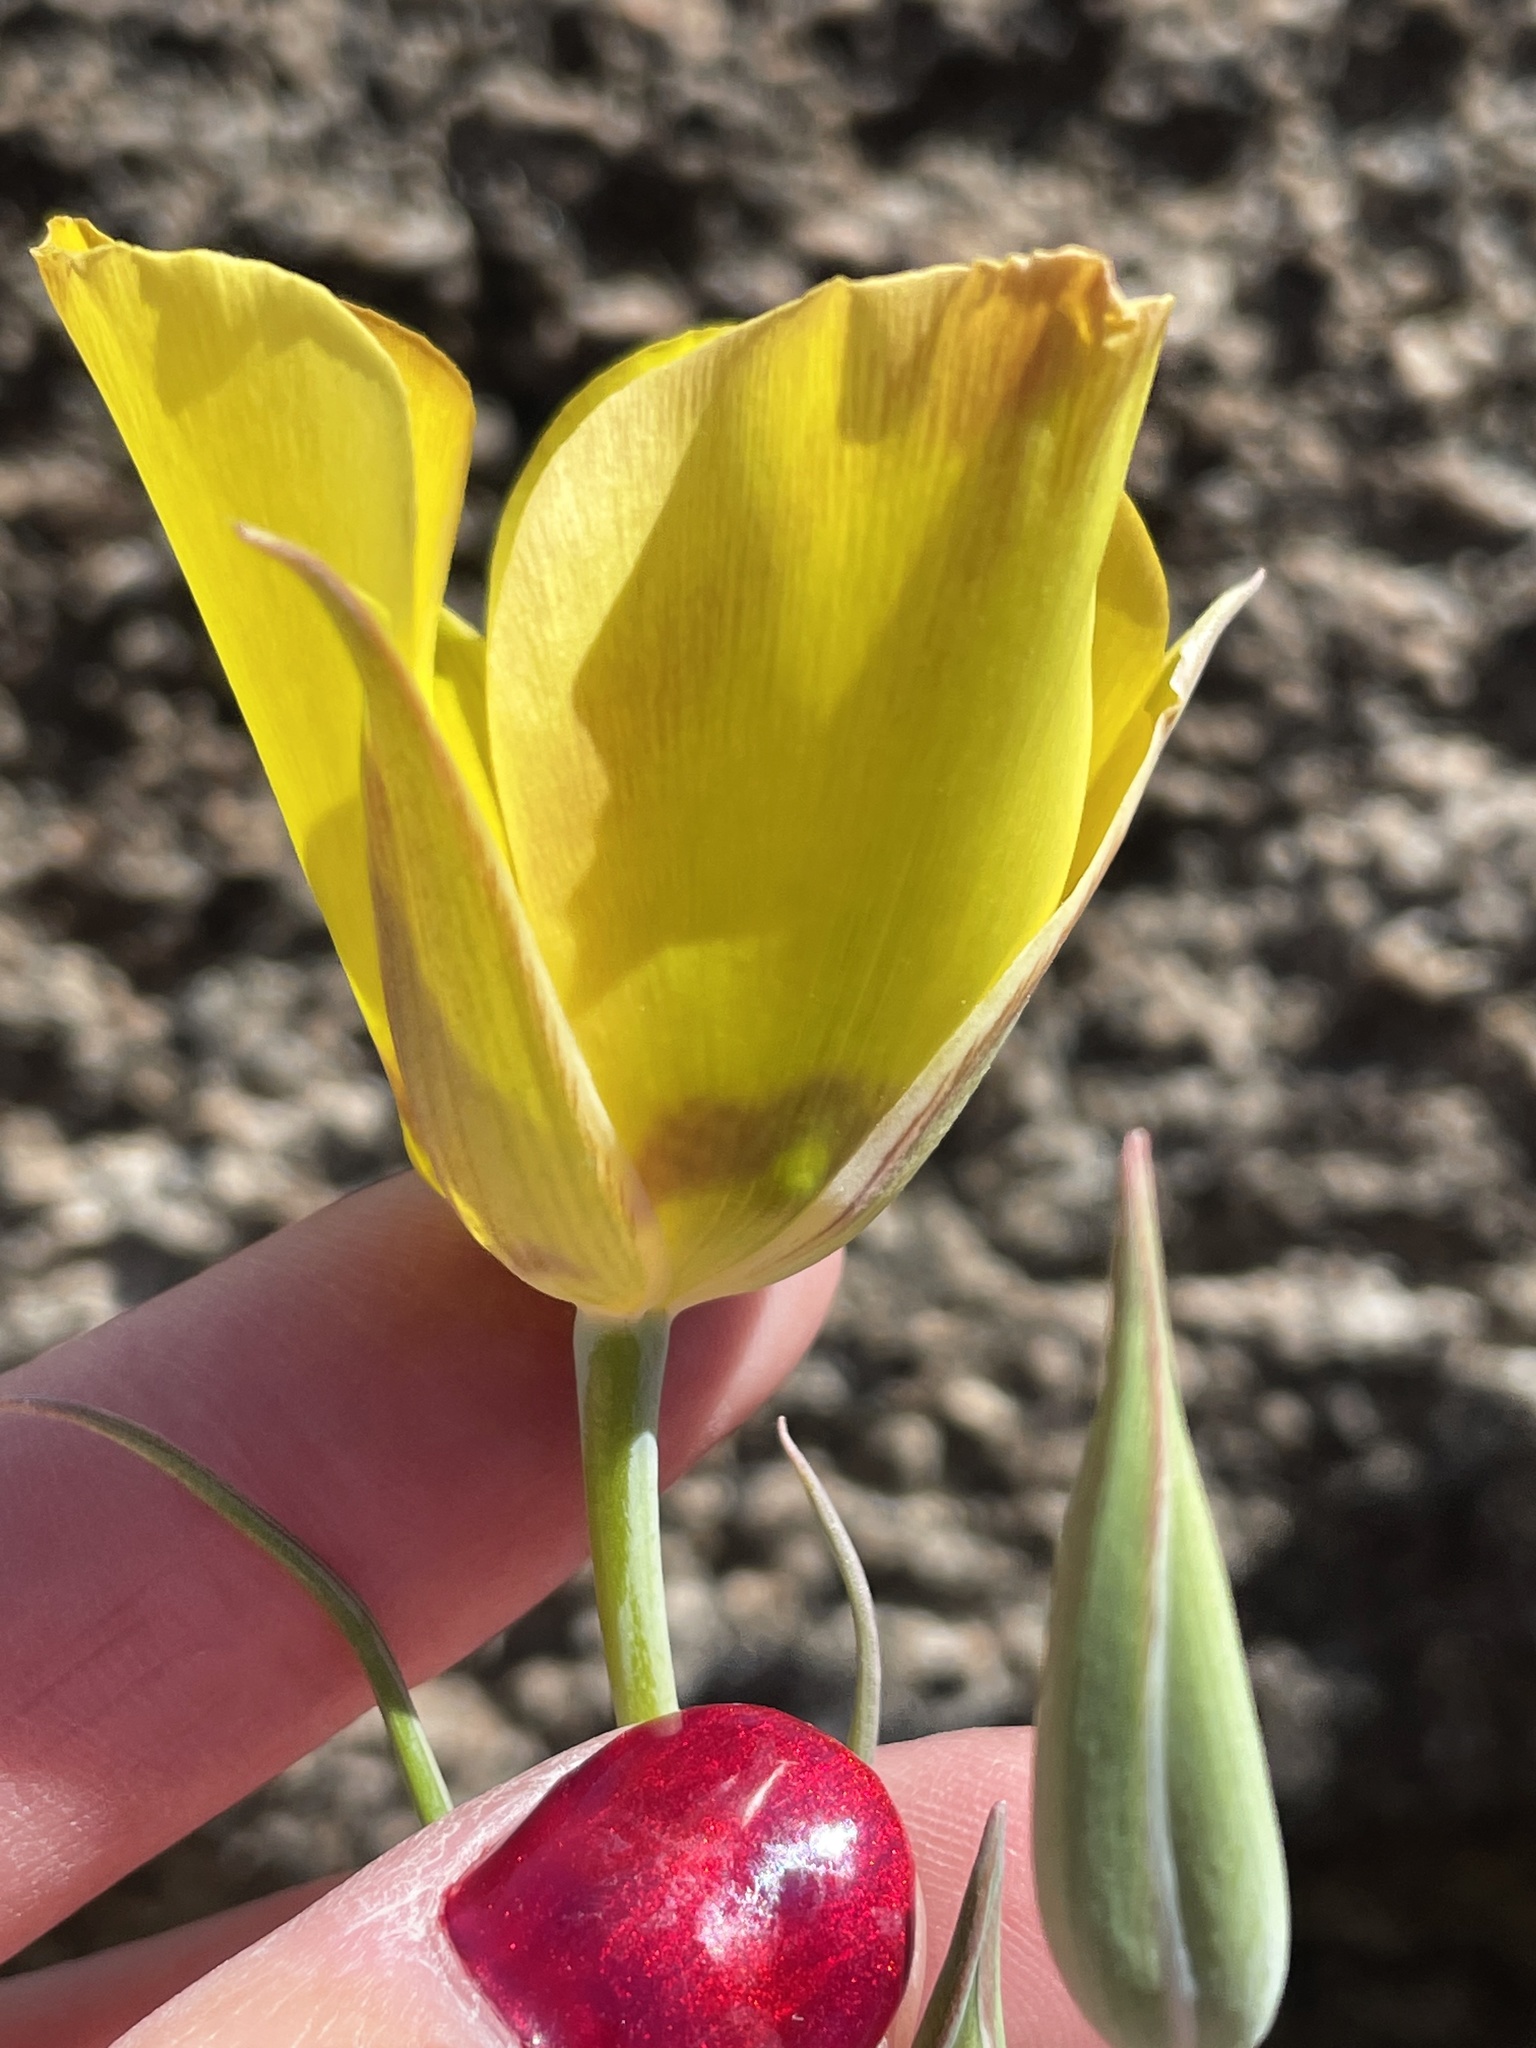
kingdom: Plantae
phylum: Tracheophyta
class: Liliopsida
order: Liliales
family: Liliaceae
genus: Calochortus
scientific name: Calochortus concolor
